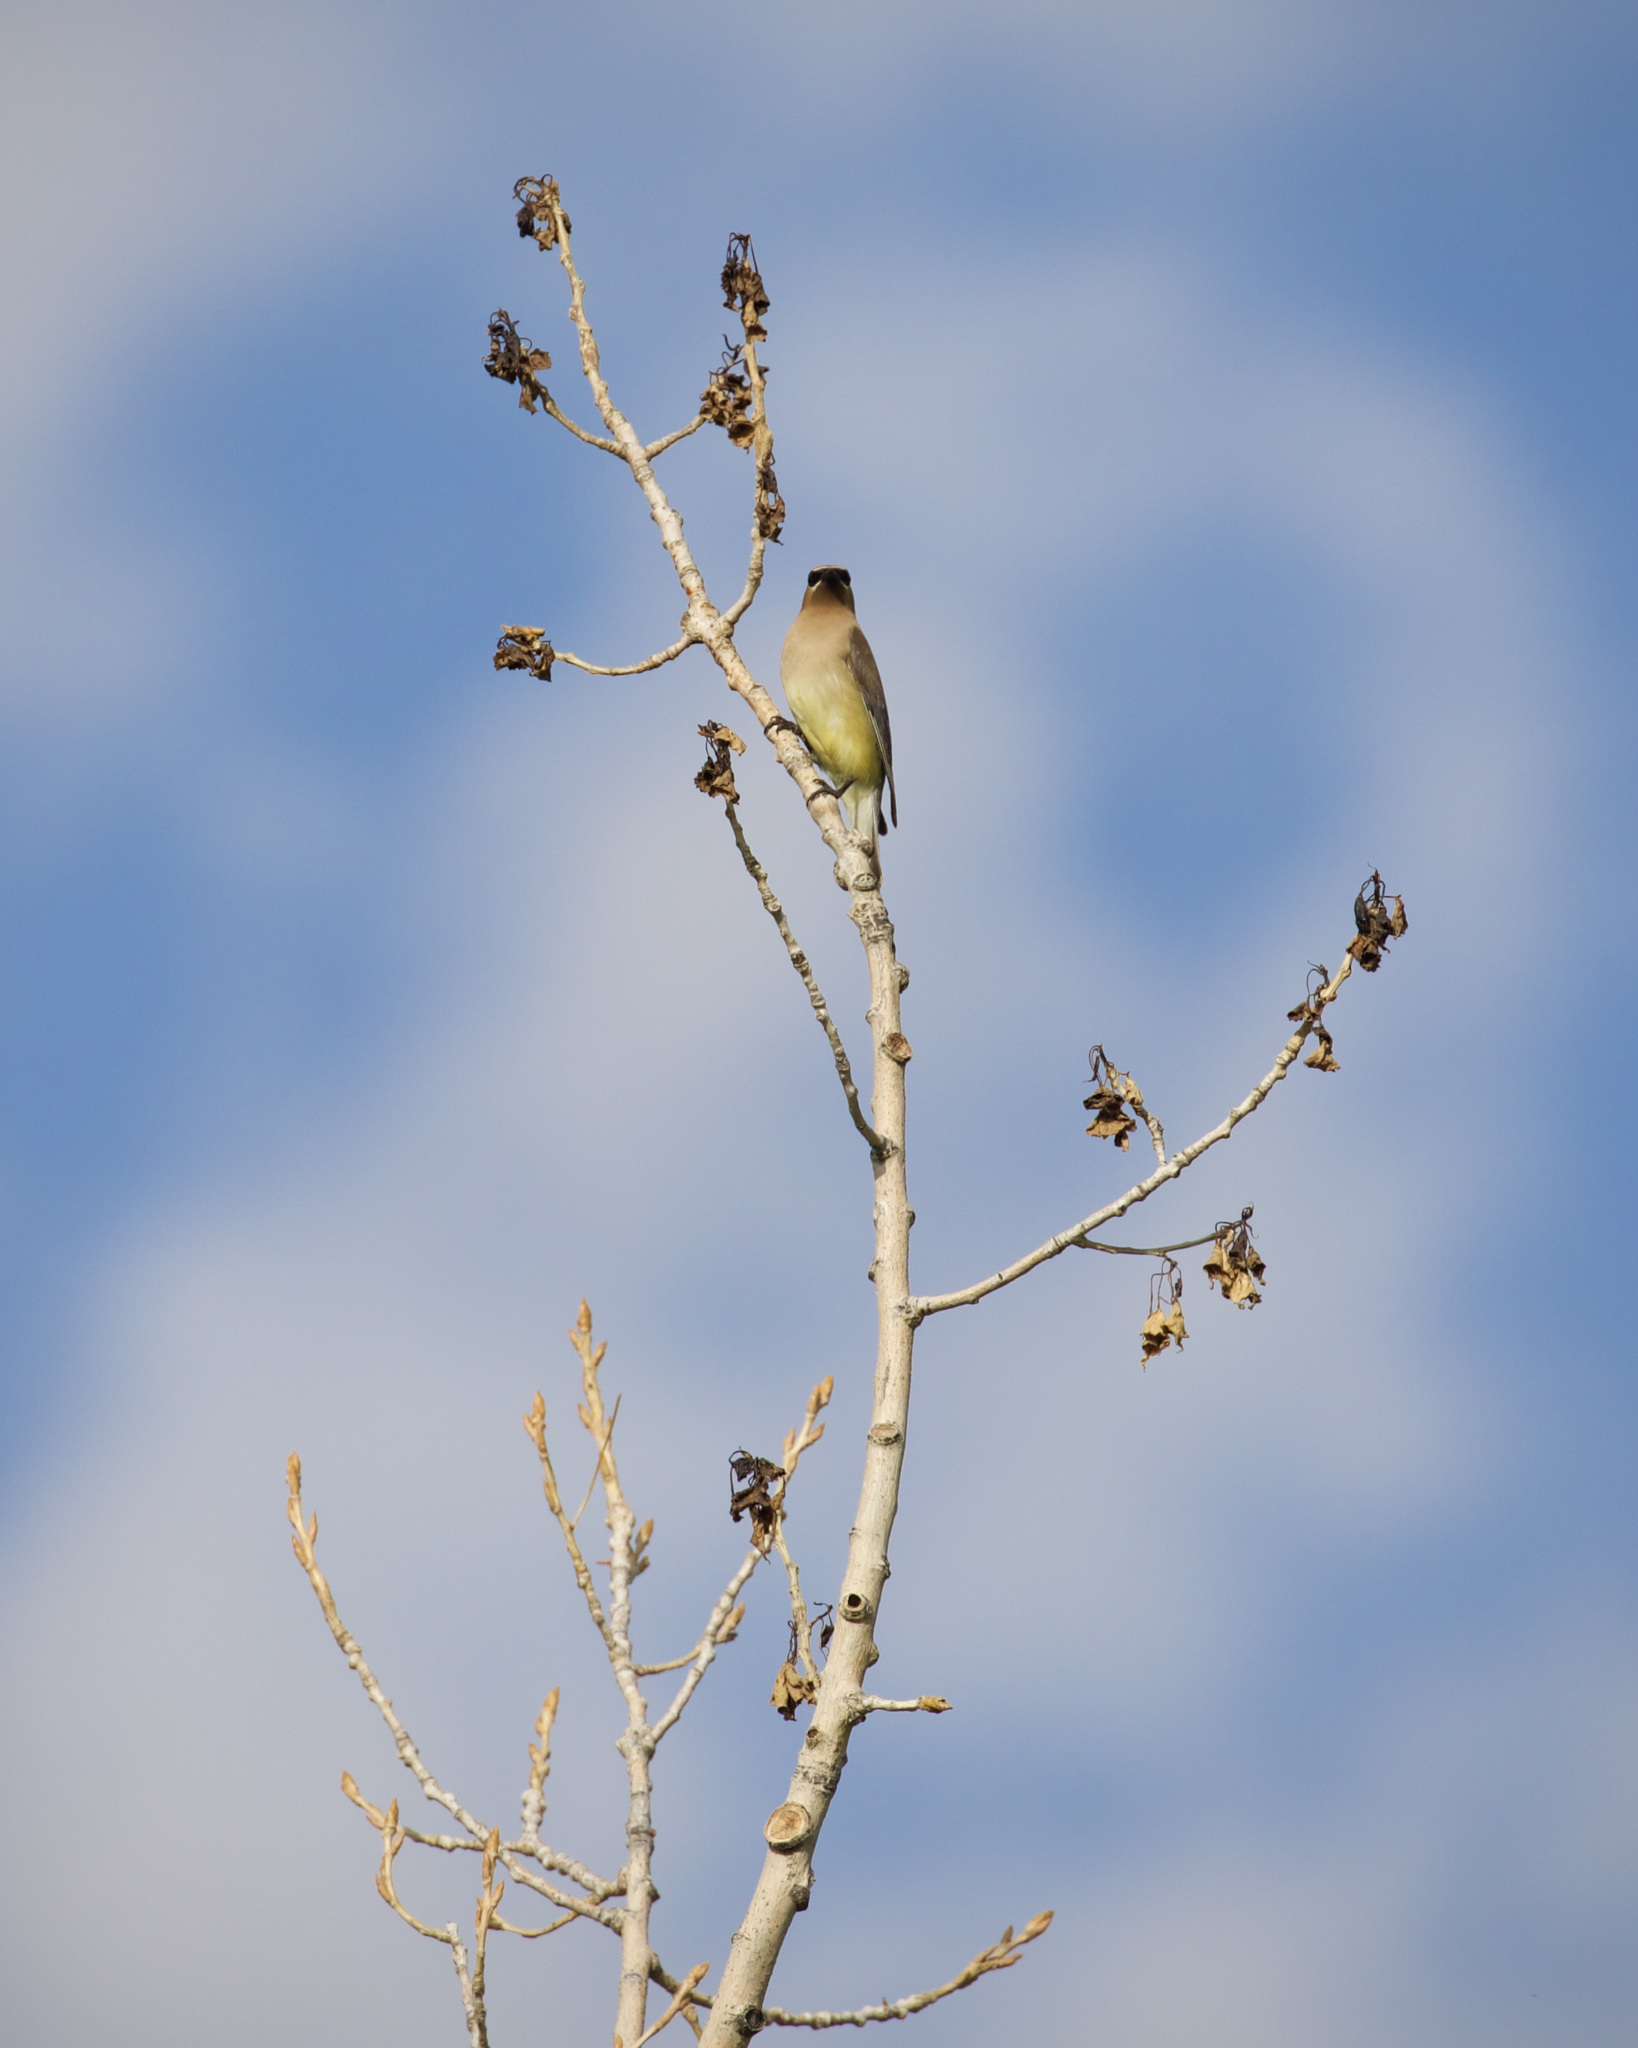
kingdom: Animalia
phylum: Chordata
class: Aves
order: Passeriformes
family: Bombycillidae
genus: Bombycilla
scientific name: Bombycilla cedrorum
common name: Cedar waxwing
